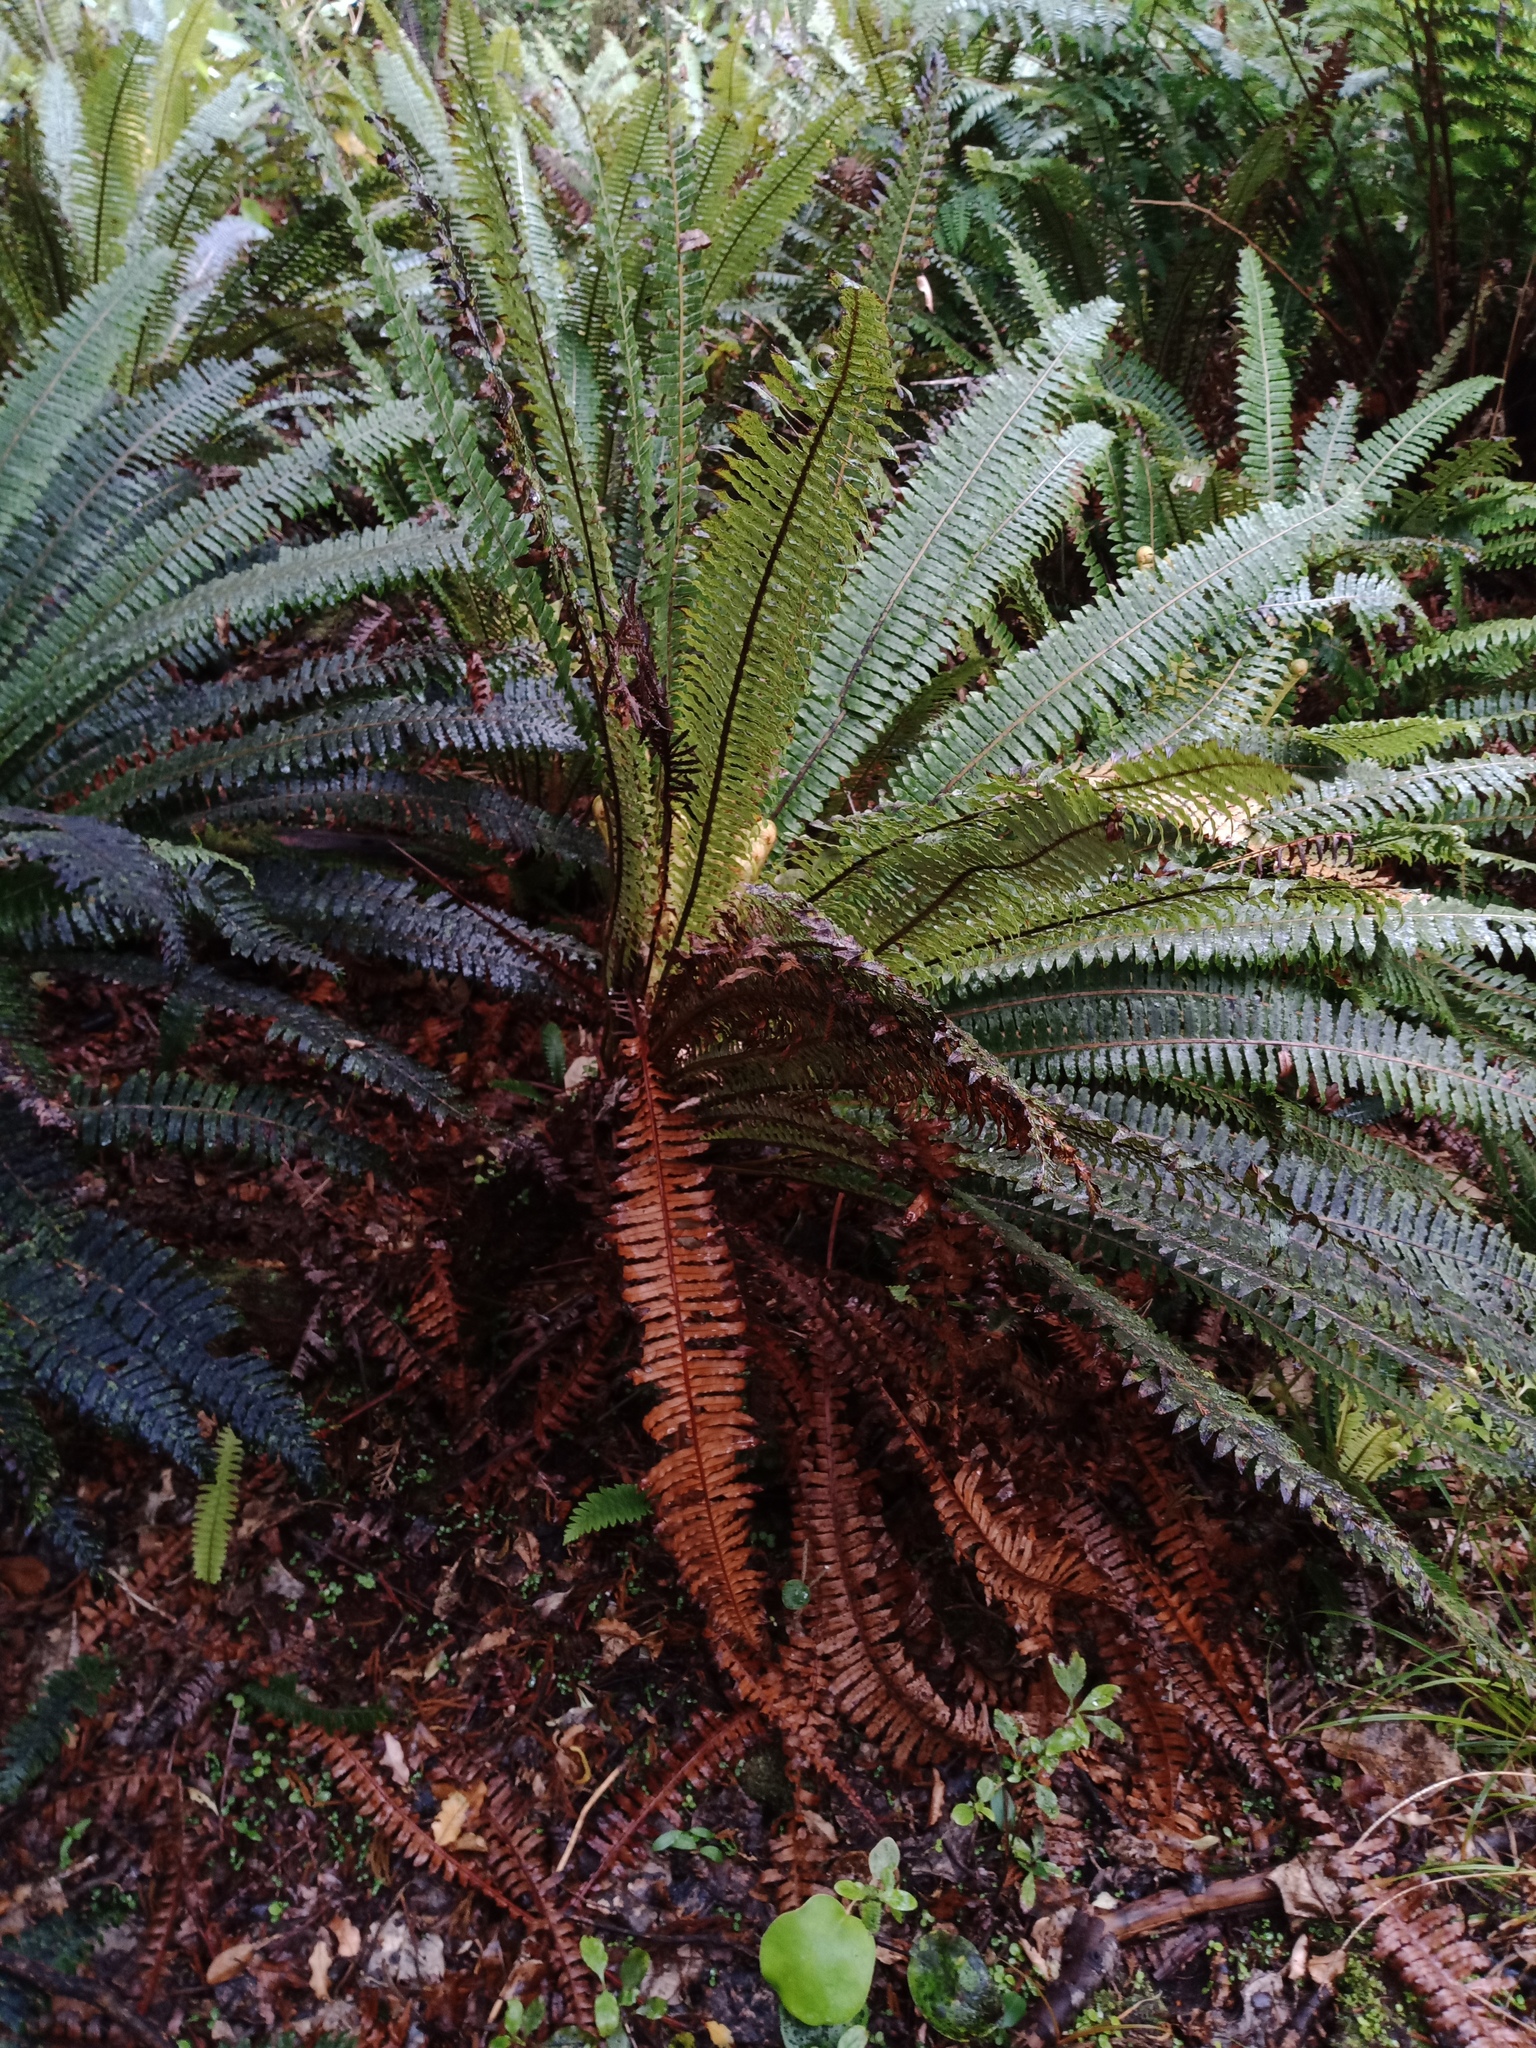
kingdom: Plantae
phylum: Tracheophyta
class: Polypodiopsida
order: Polypodiales
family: Blechnaceae
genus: Lomaria
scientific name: Lomaria discolor
